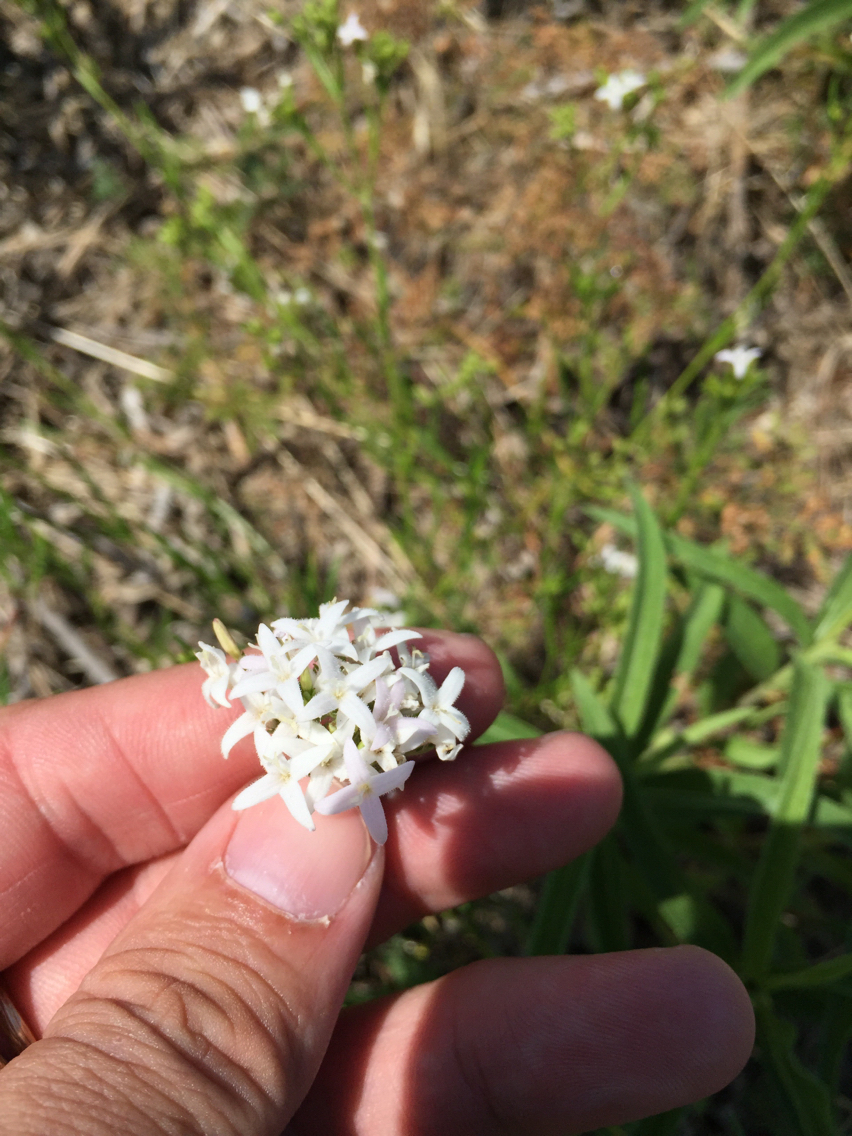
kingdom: Plantae
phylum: Tracheophyta
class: Magnoliopsida
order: Gentianales
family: Rubiaceae
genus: Stenaria
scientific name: Stenaria nigricans
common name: Diamondflowers
